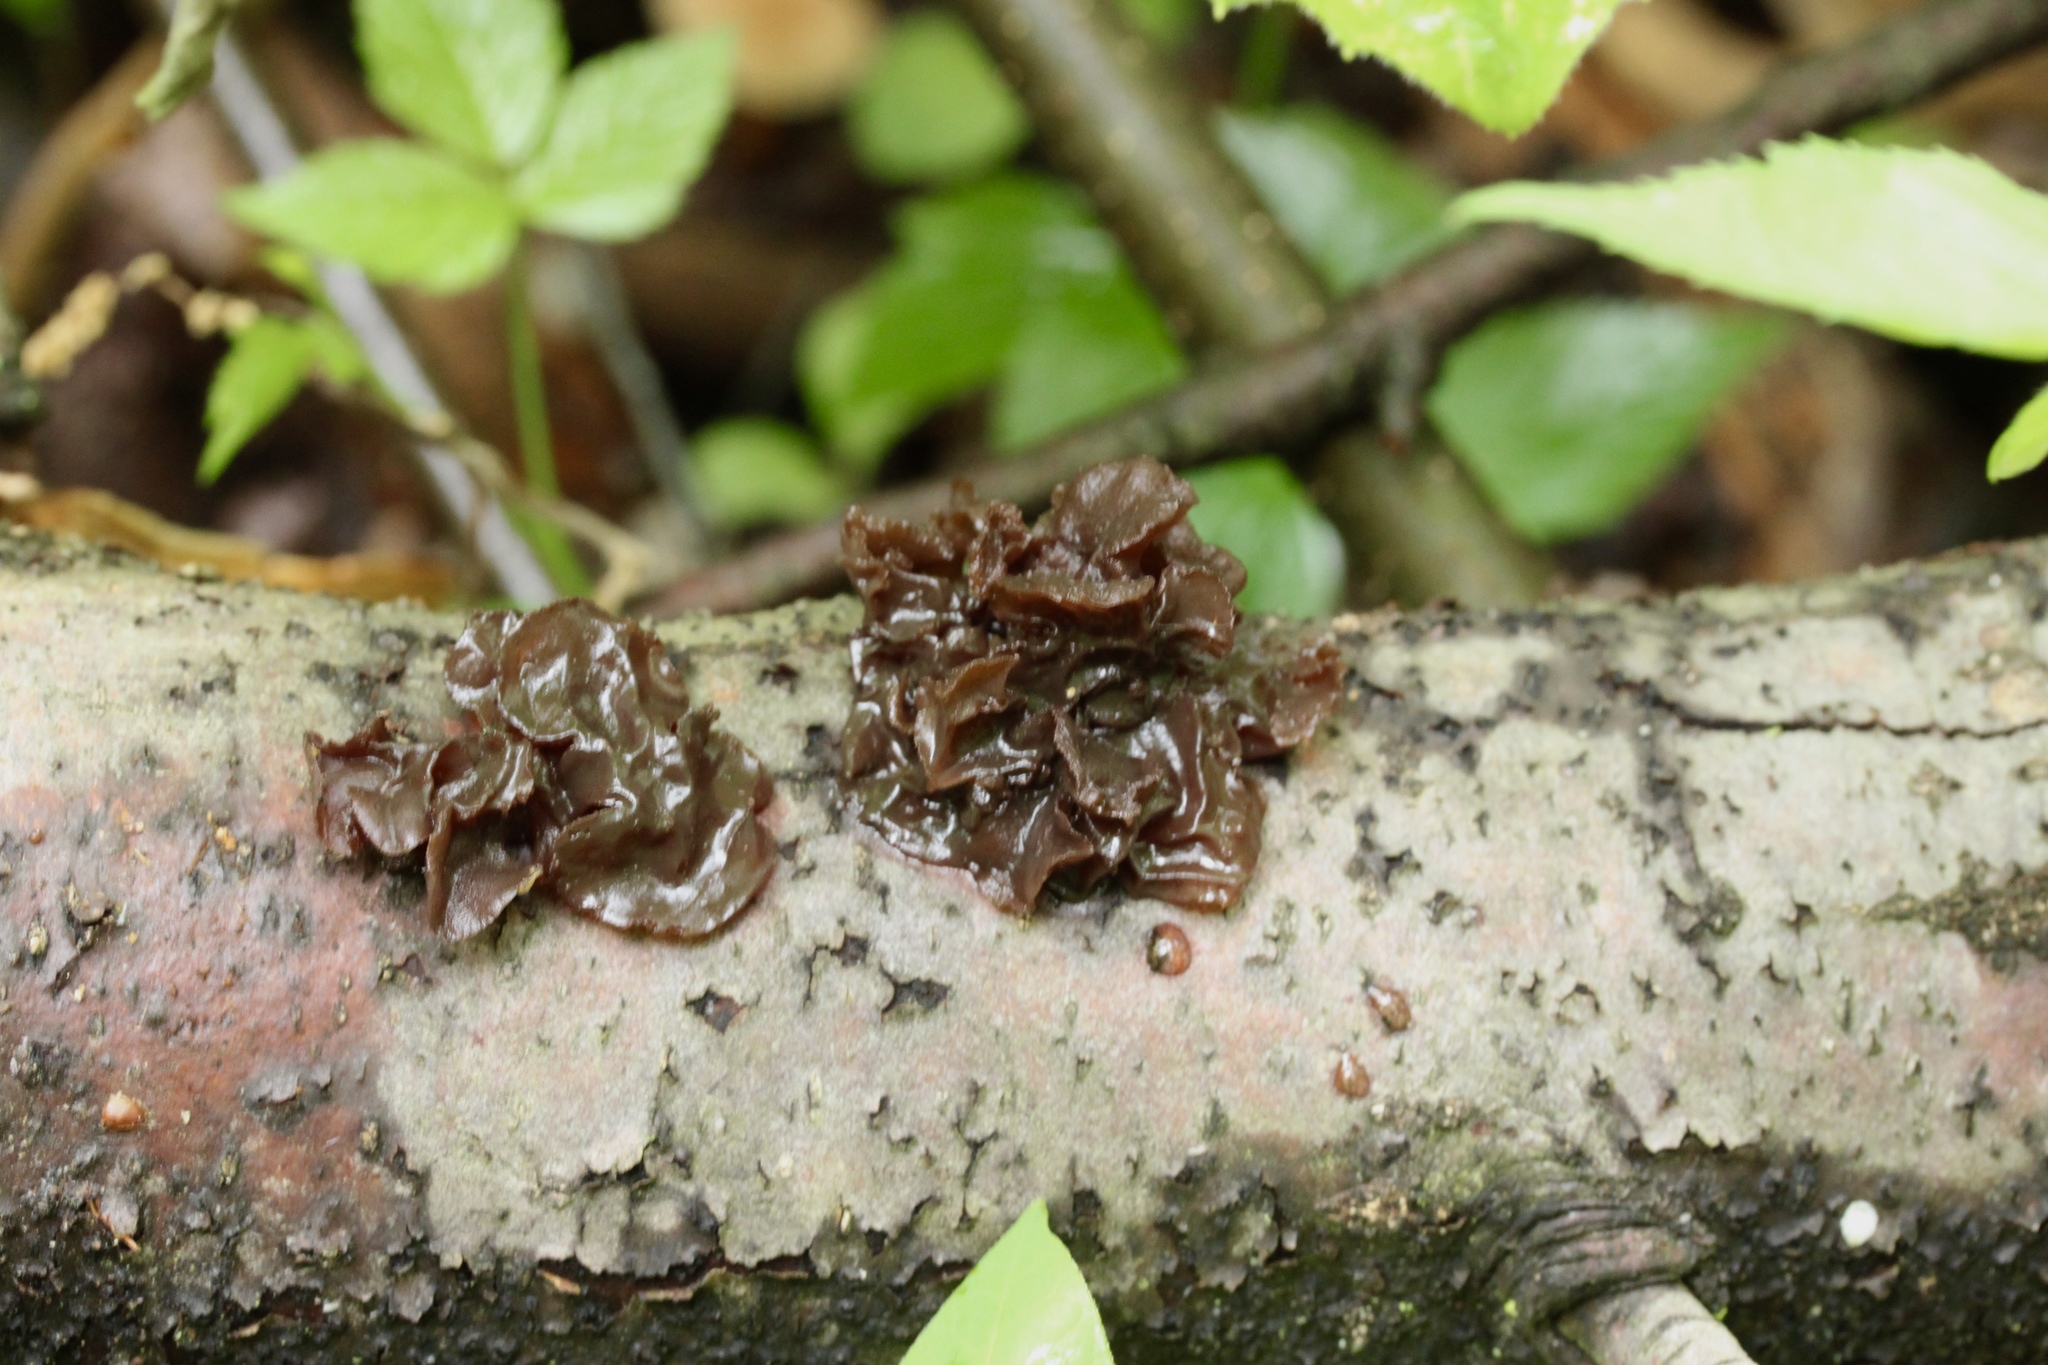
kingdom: Fungi
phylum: Basidiomycota
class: Agaricomycetes
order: Auriculariales
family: Auriculariaceae
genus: Exidia
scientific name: Exidia
